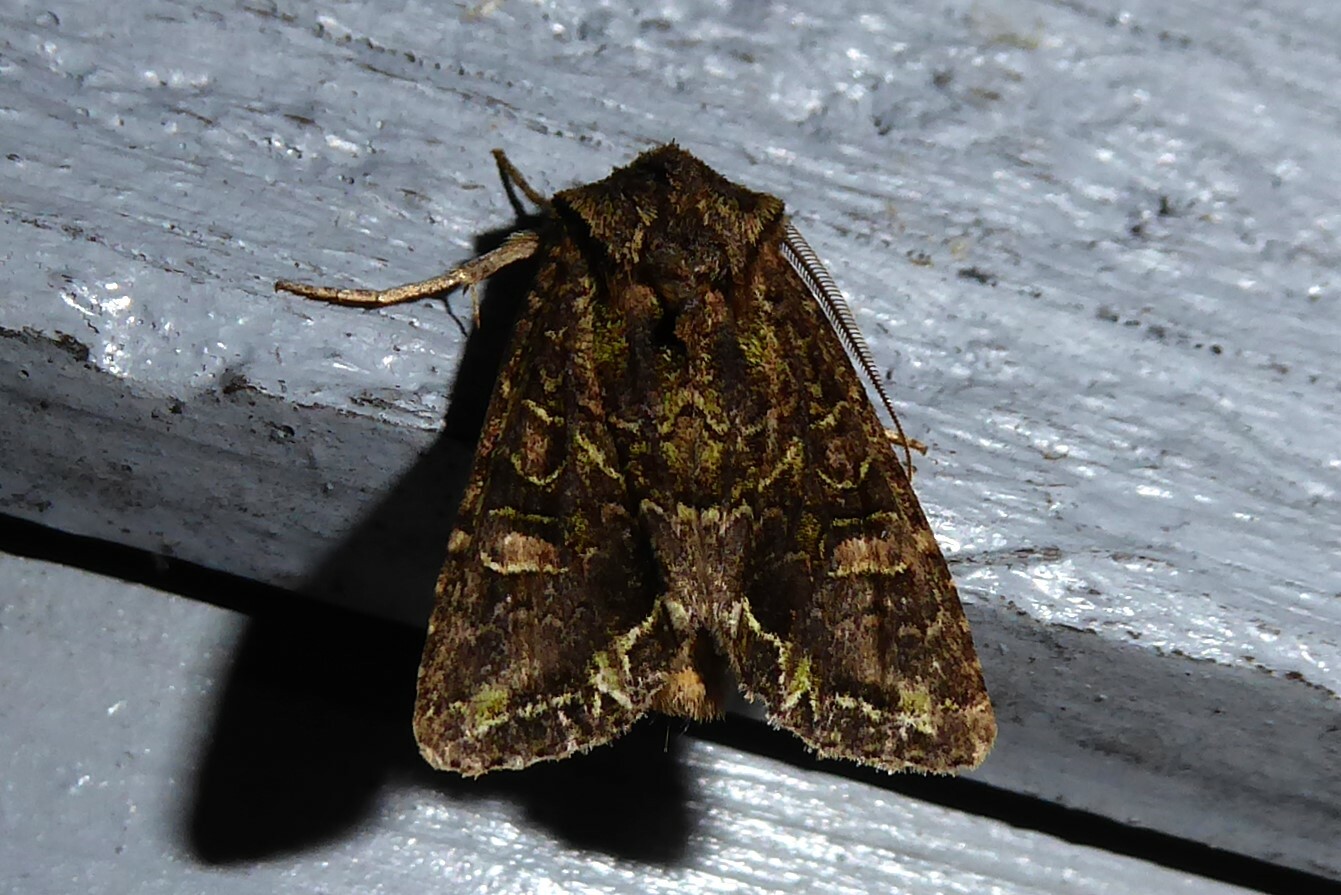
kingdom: Animalia
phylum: Arthropoda
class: Insecta
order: Lepidoptera
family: Noctuidae
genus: Ichneutica
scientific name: Ichneutica insignis
